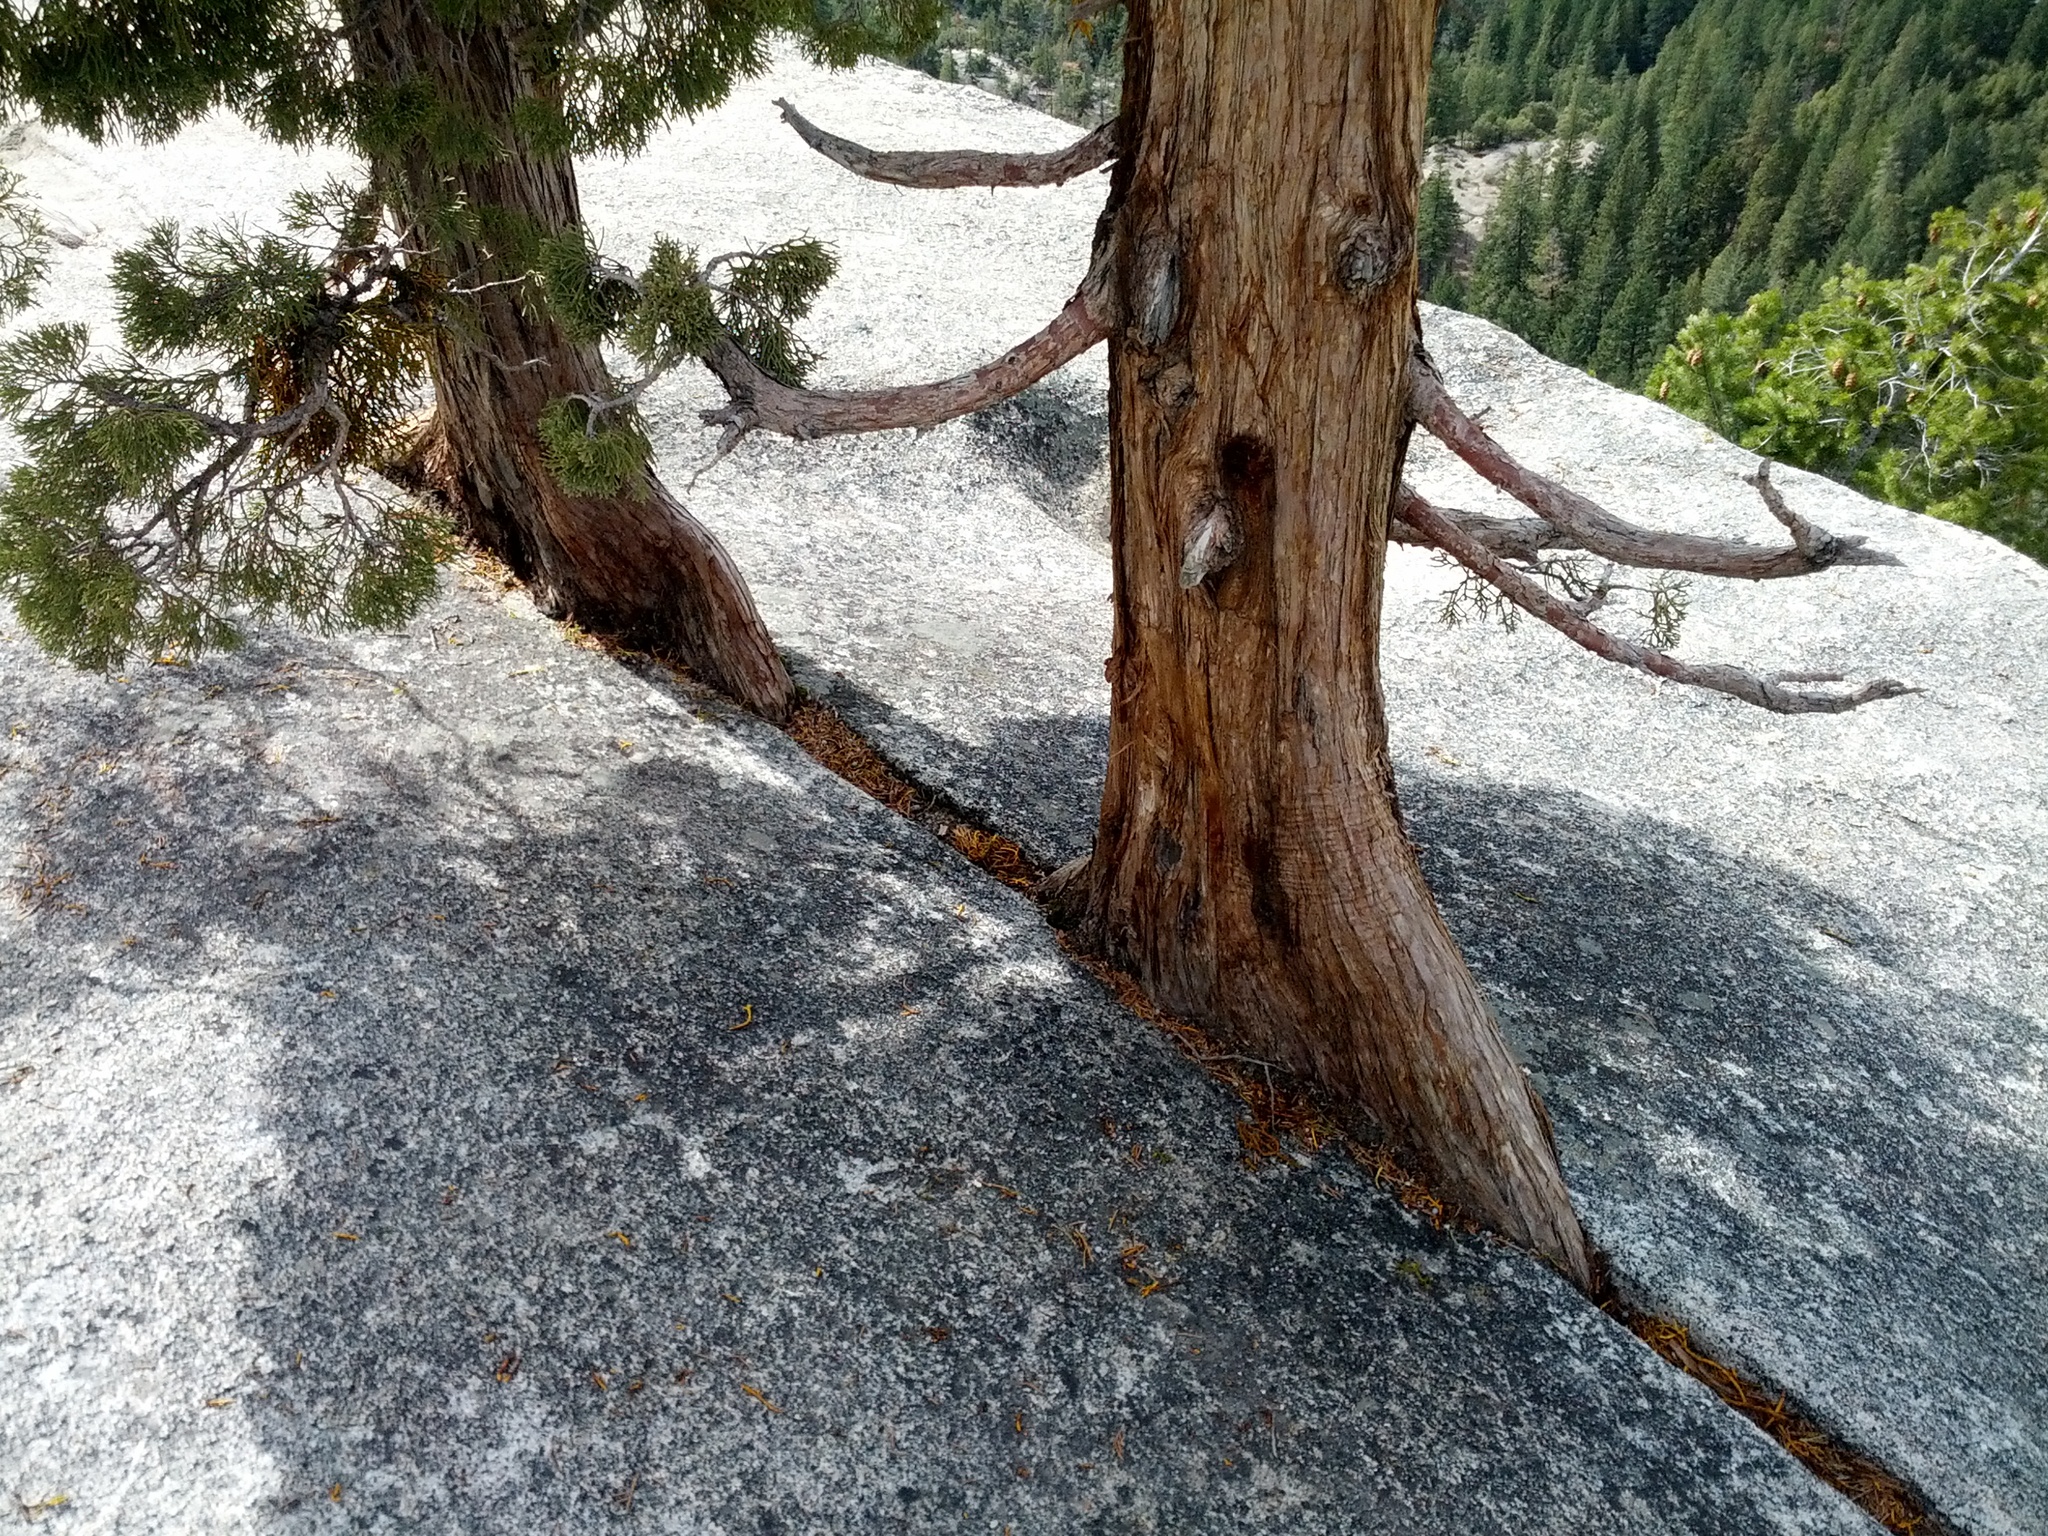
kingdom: Plantae
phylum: Tracheophyta
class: Pinopsida
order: Pinales
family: Cupressaceae
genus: Juniperus
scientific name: Juniperus occidentalis
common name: Western juniper
